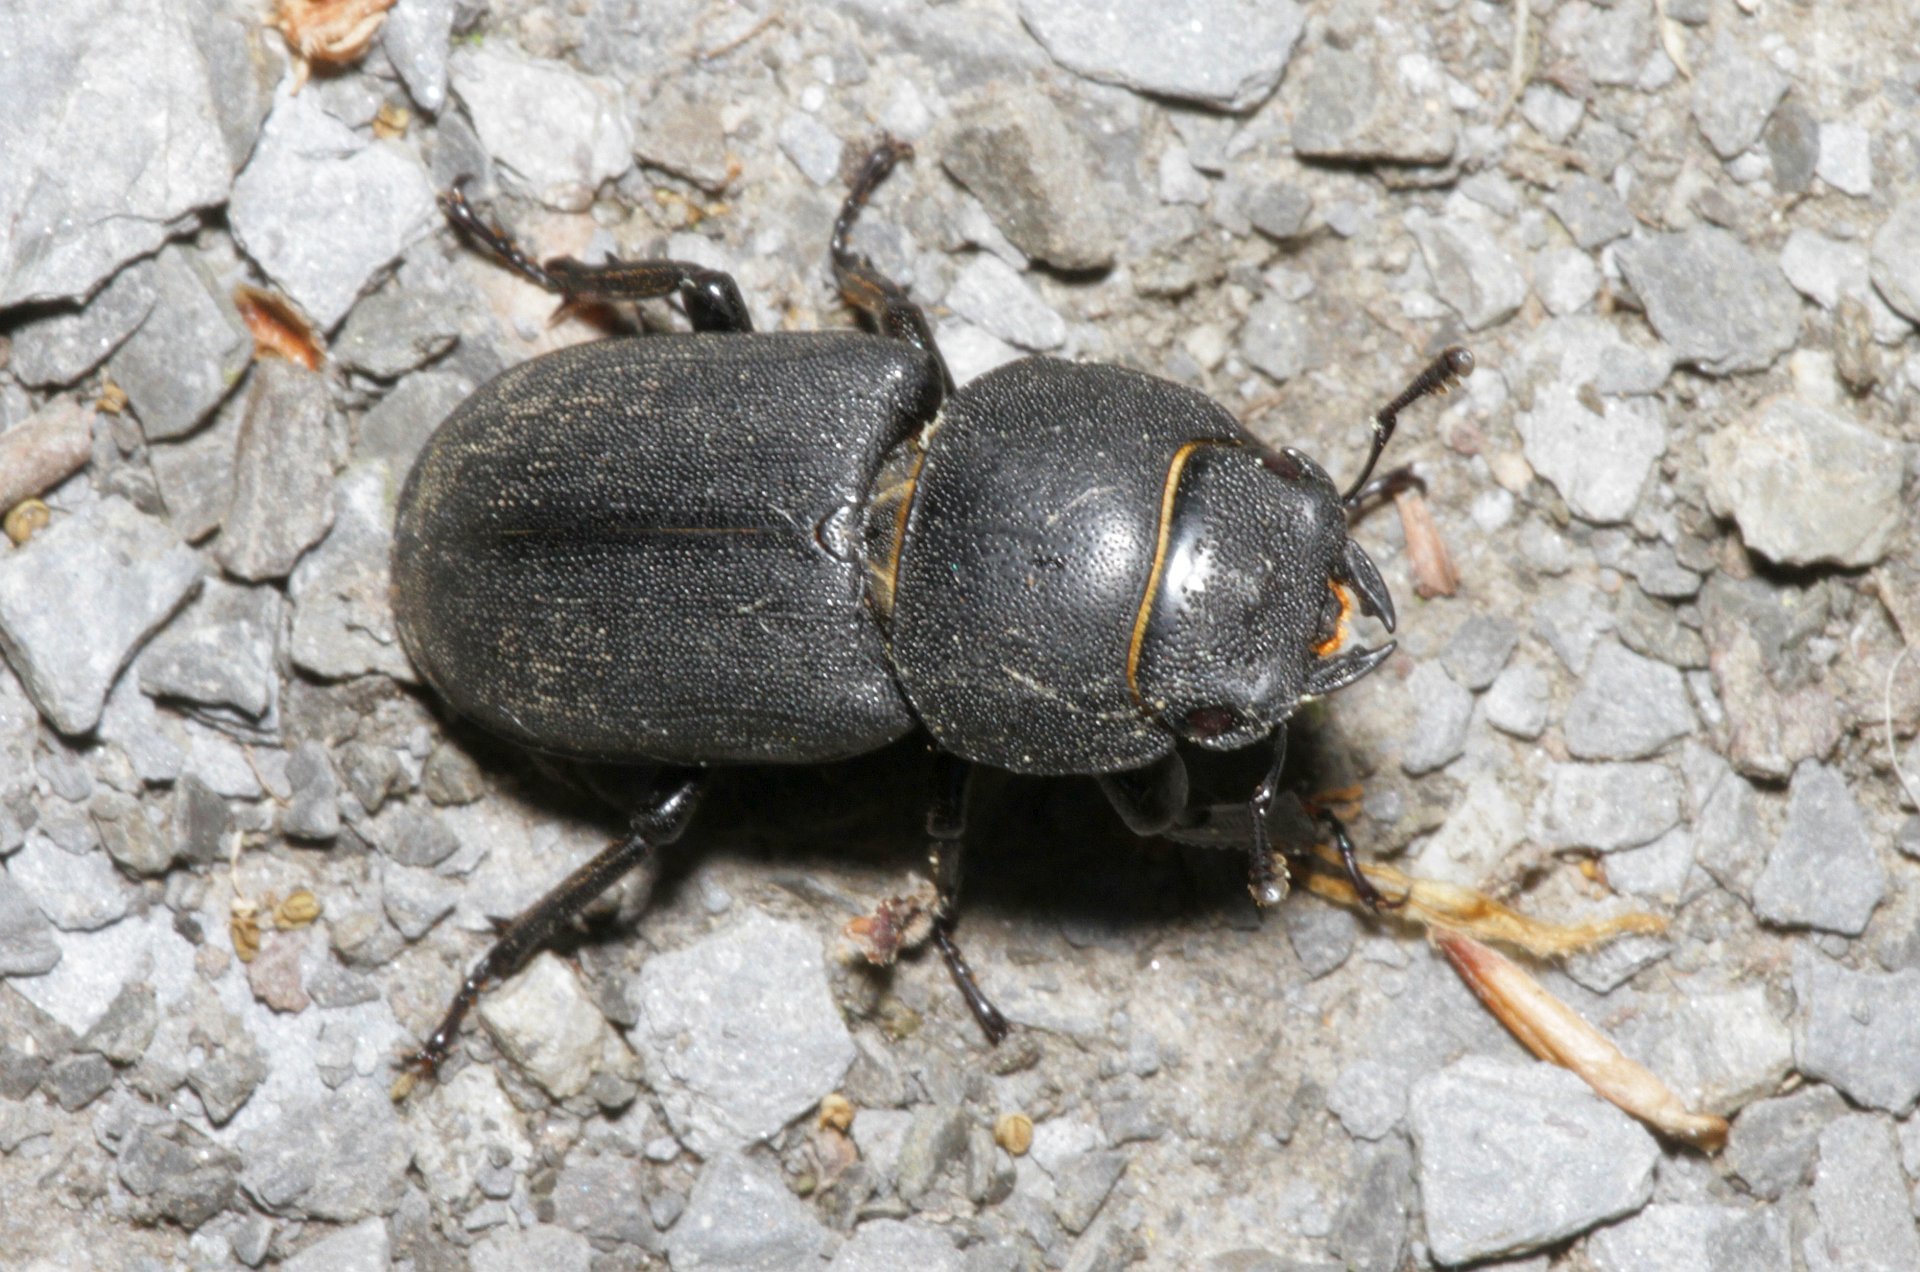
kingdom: Animalia
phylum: Arthropoda
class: Insecta
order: Coleoptera
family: Lucanidae
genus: Dorcus
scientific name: Dorcus parallelipipedus
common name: Lesser stag beetle
